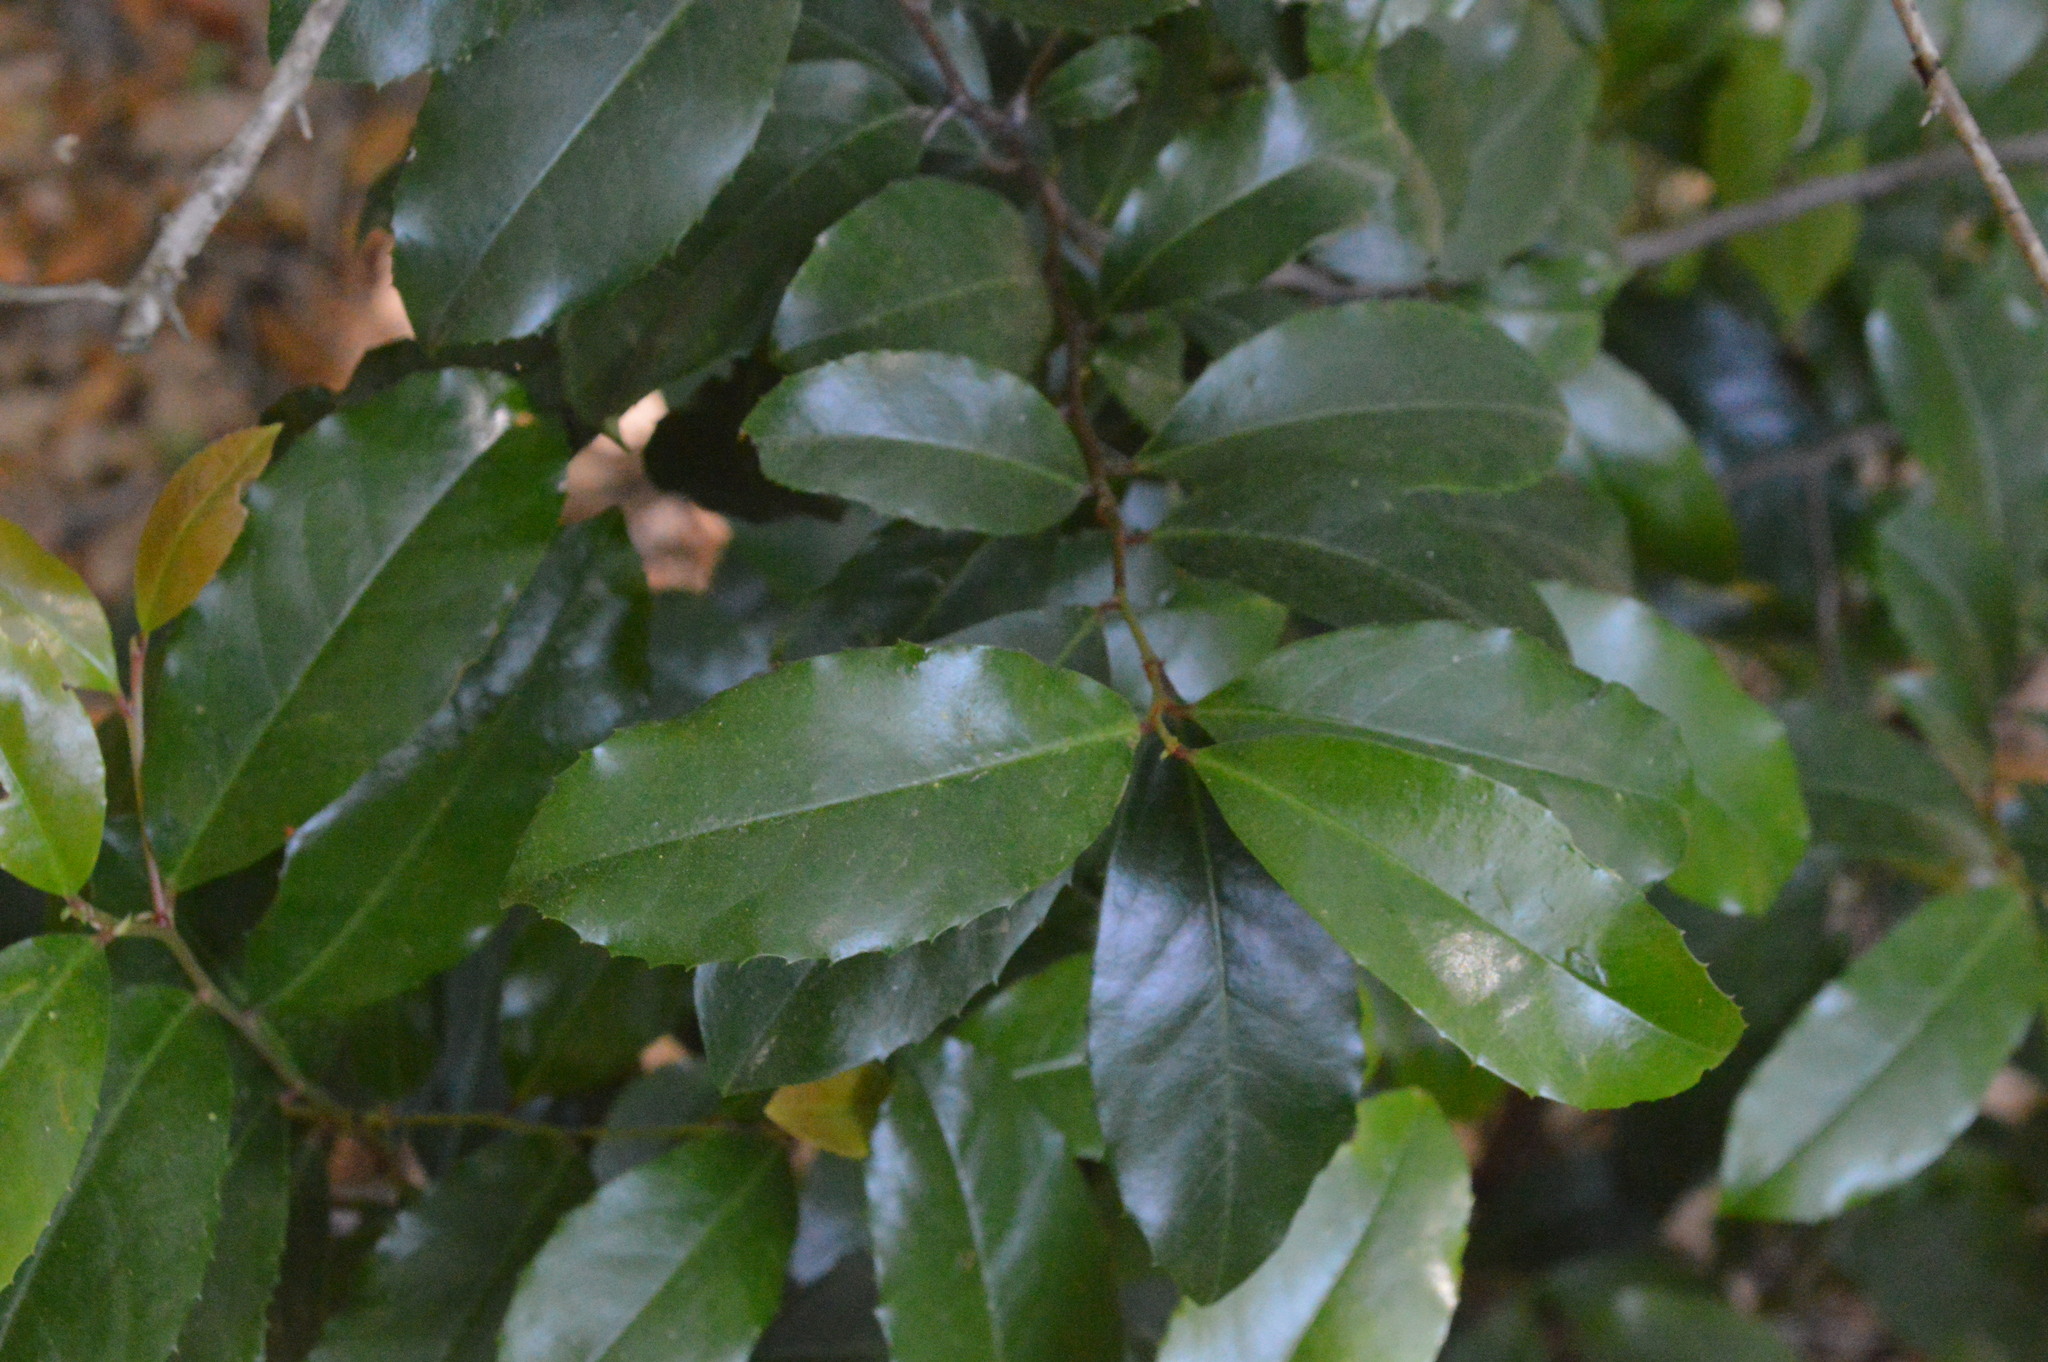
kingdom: Plantae
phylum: Tracheophyta
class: Magnoliopsida
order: Rosales
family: Rosaceae
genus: Prunus
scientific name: Prunus caroliniana
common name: Carolina laurel cherry
